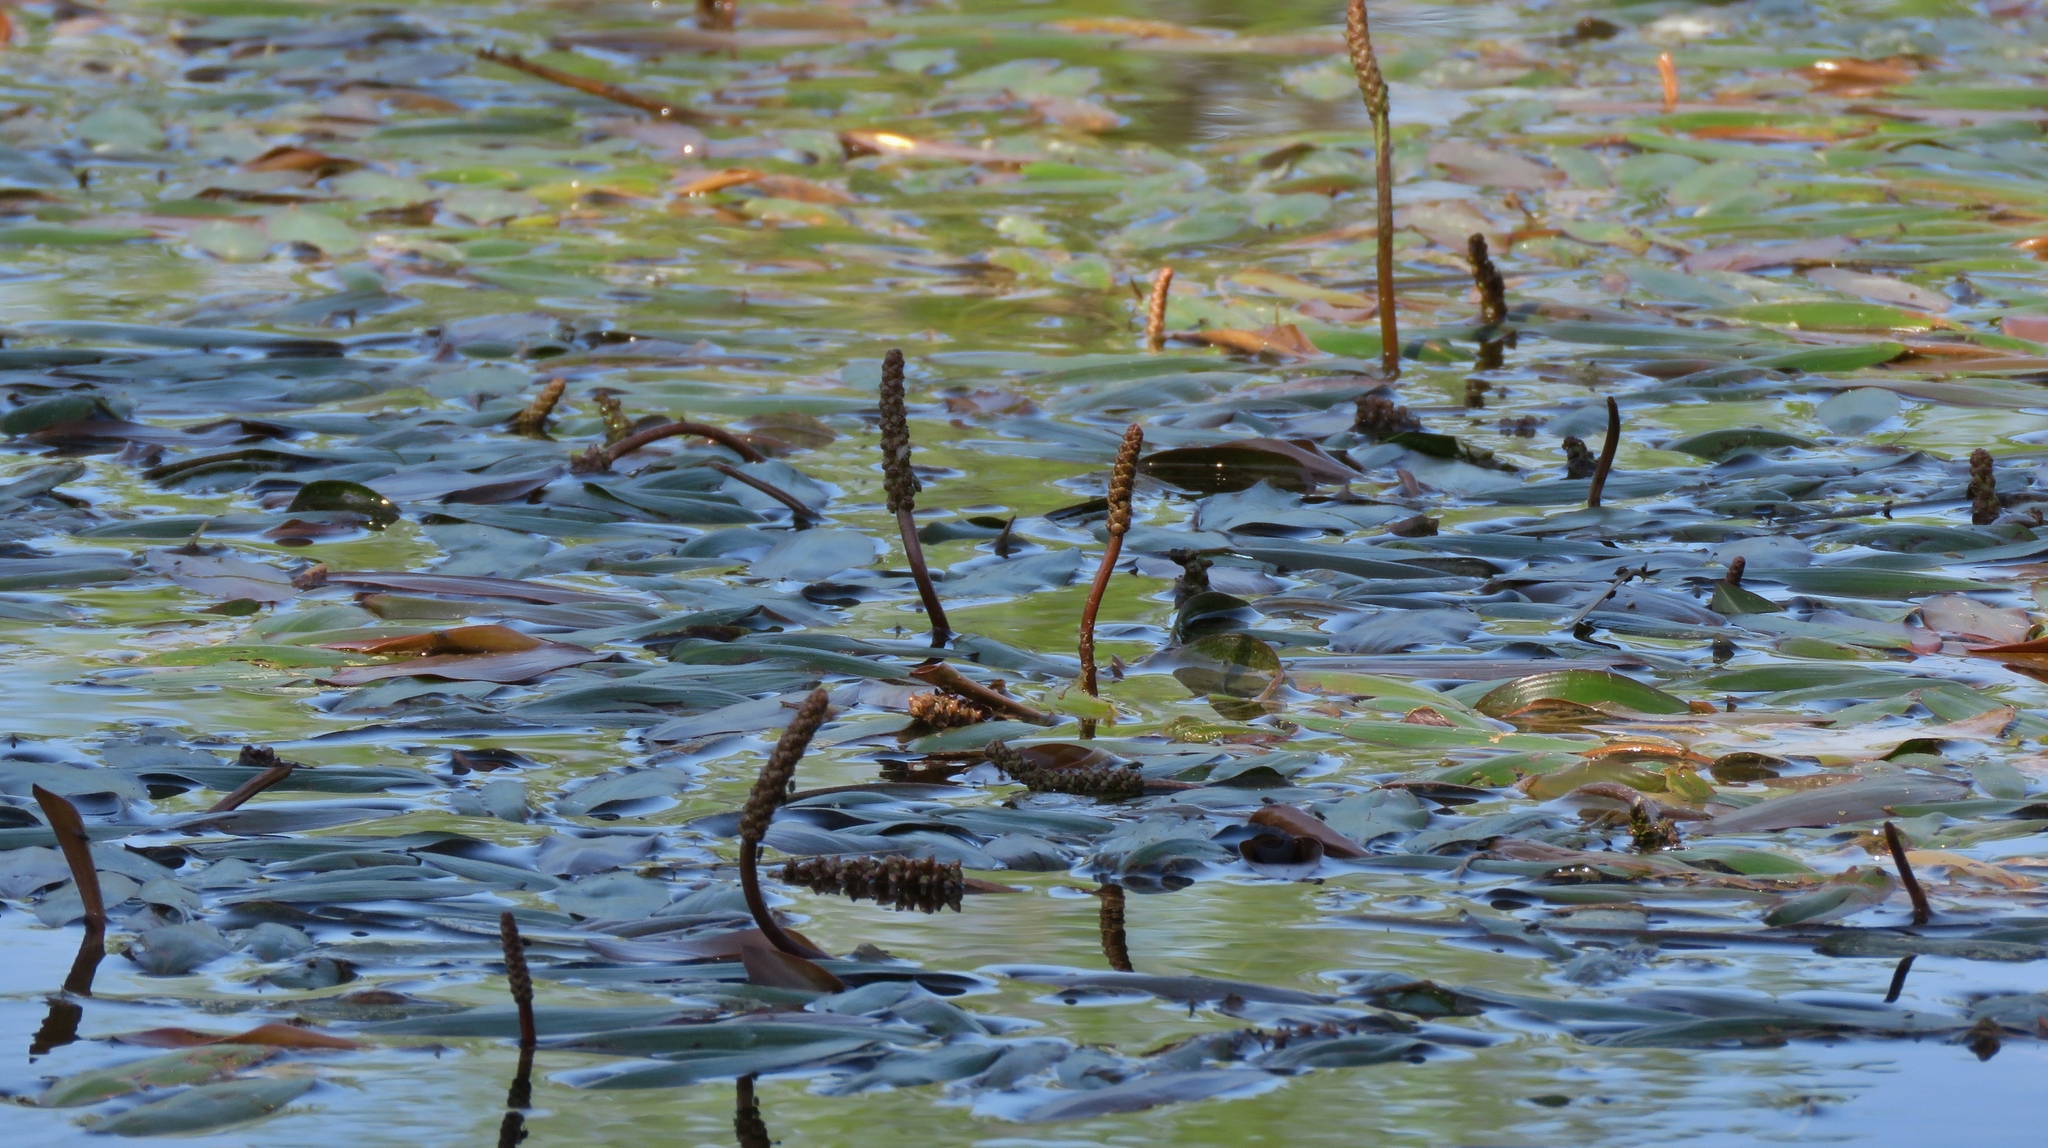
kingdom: Plantae
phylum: Tracheophyta
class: Liliopsida
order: Alismatales
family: Potamogetonaceae
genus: Potamogeton
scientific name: Potamogeton nodosus
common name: Loddon pondweed
